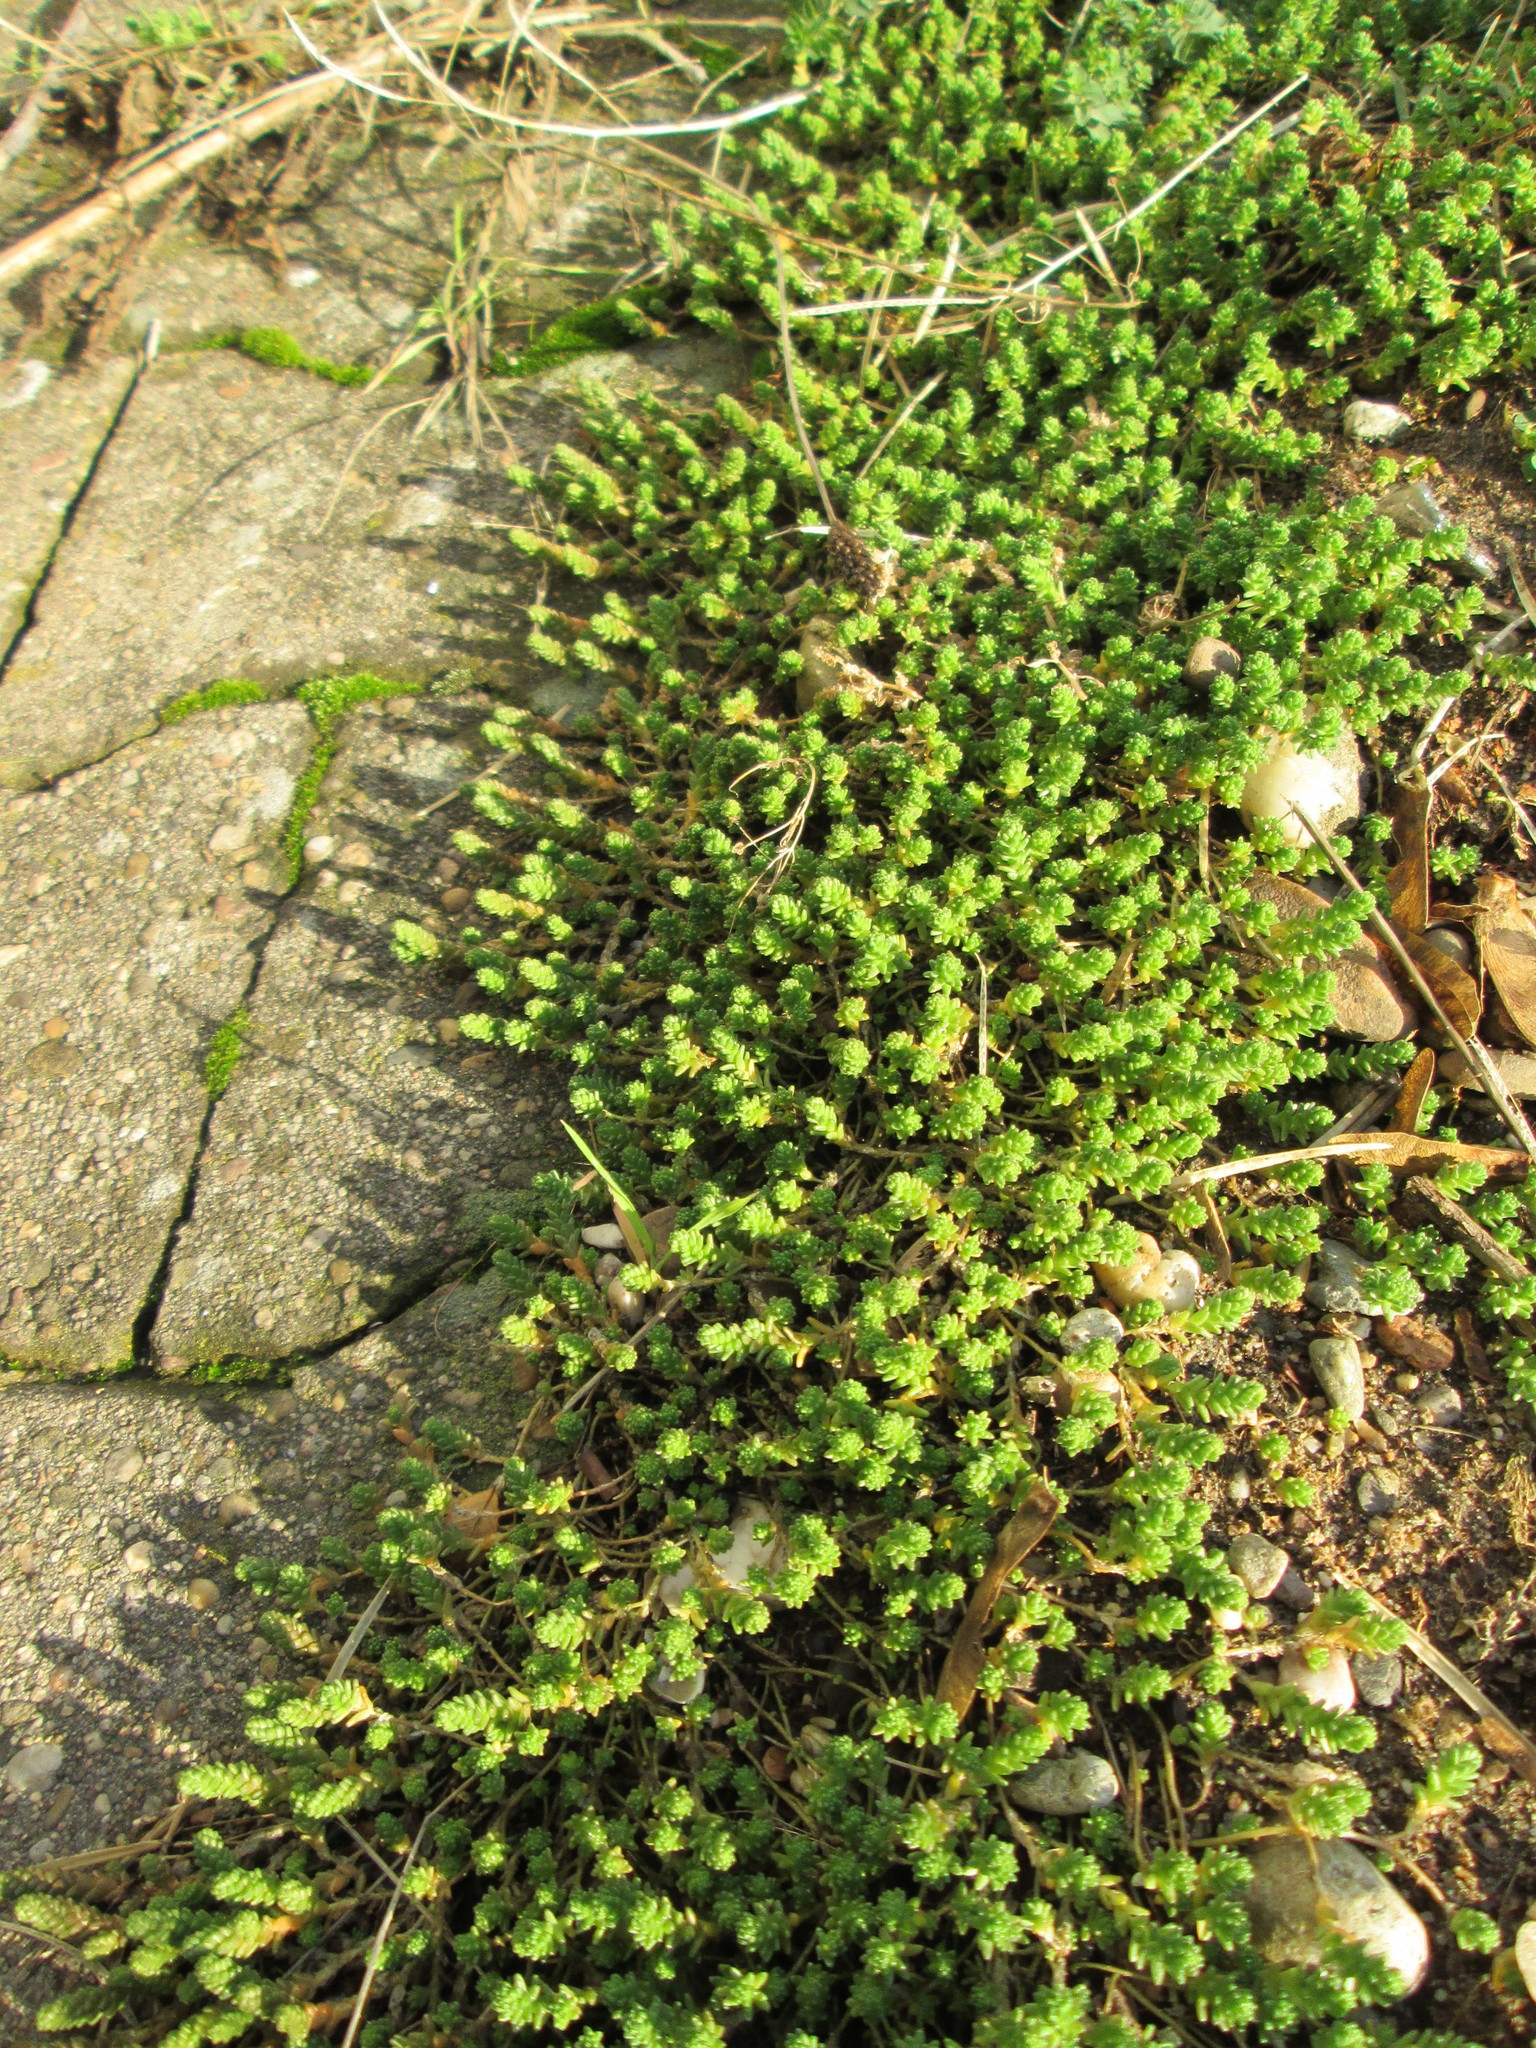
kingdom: Plantae
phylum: Tracheophyta
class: Magnoliopsida
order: Saxifragales
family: Crassulaceae
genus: Sedum
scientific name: Sedum acre
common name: Biting stonecrop
